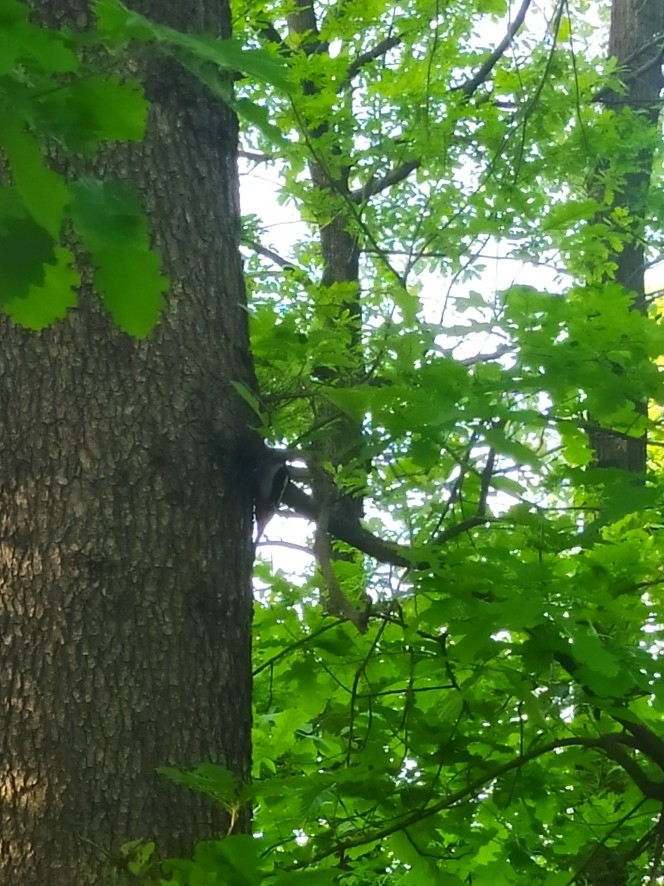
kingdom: Animalia
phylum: Chordata
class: Aves
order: Piciformes
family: Picidae
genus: Dendrocopos
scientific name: Dendrocopos major
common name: Great spotted woodpecker
